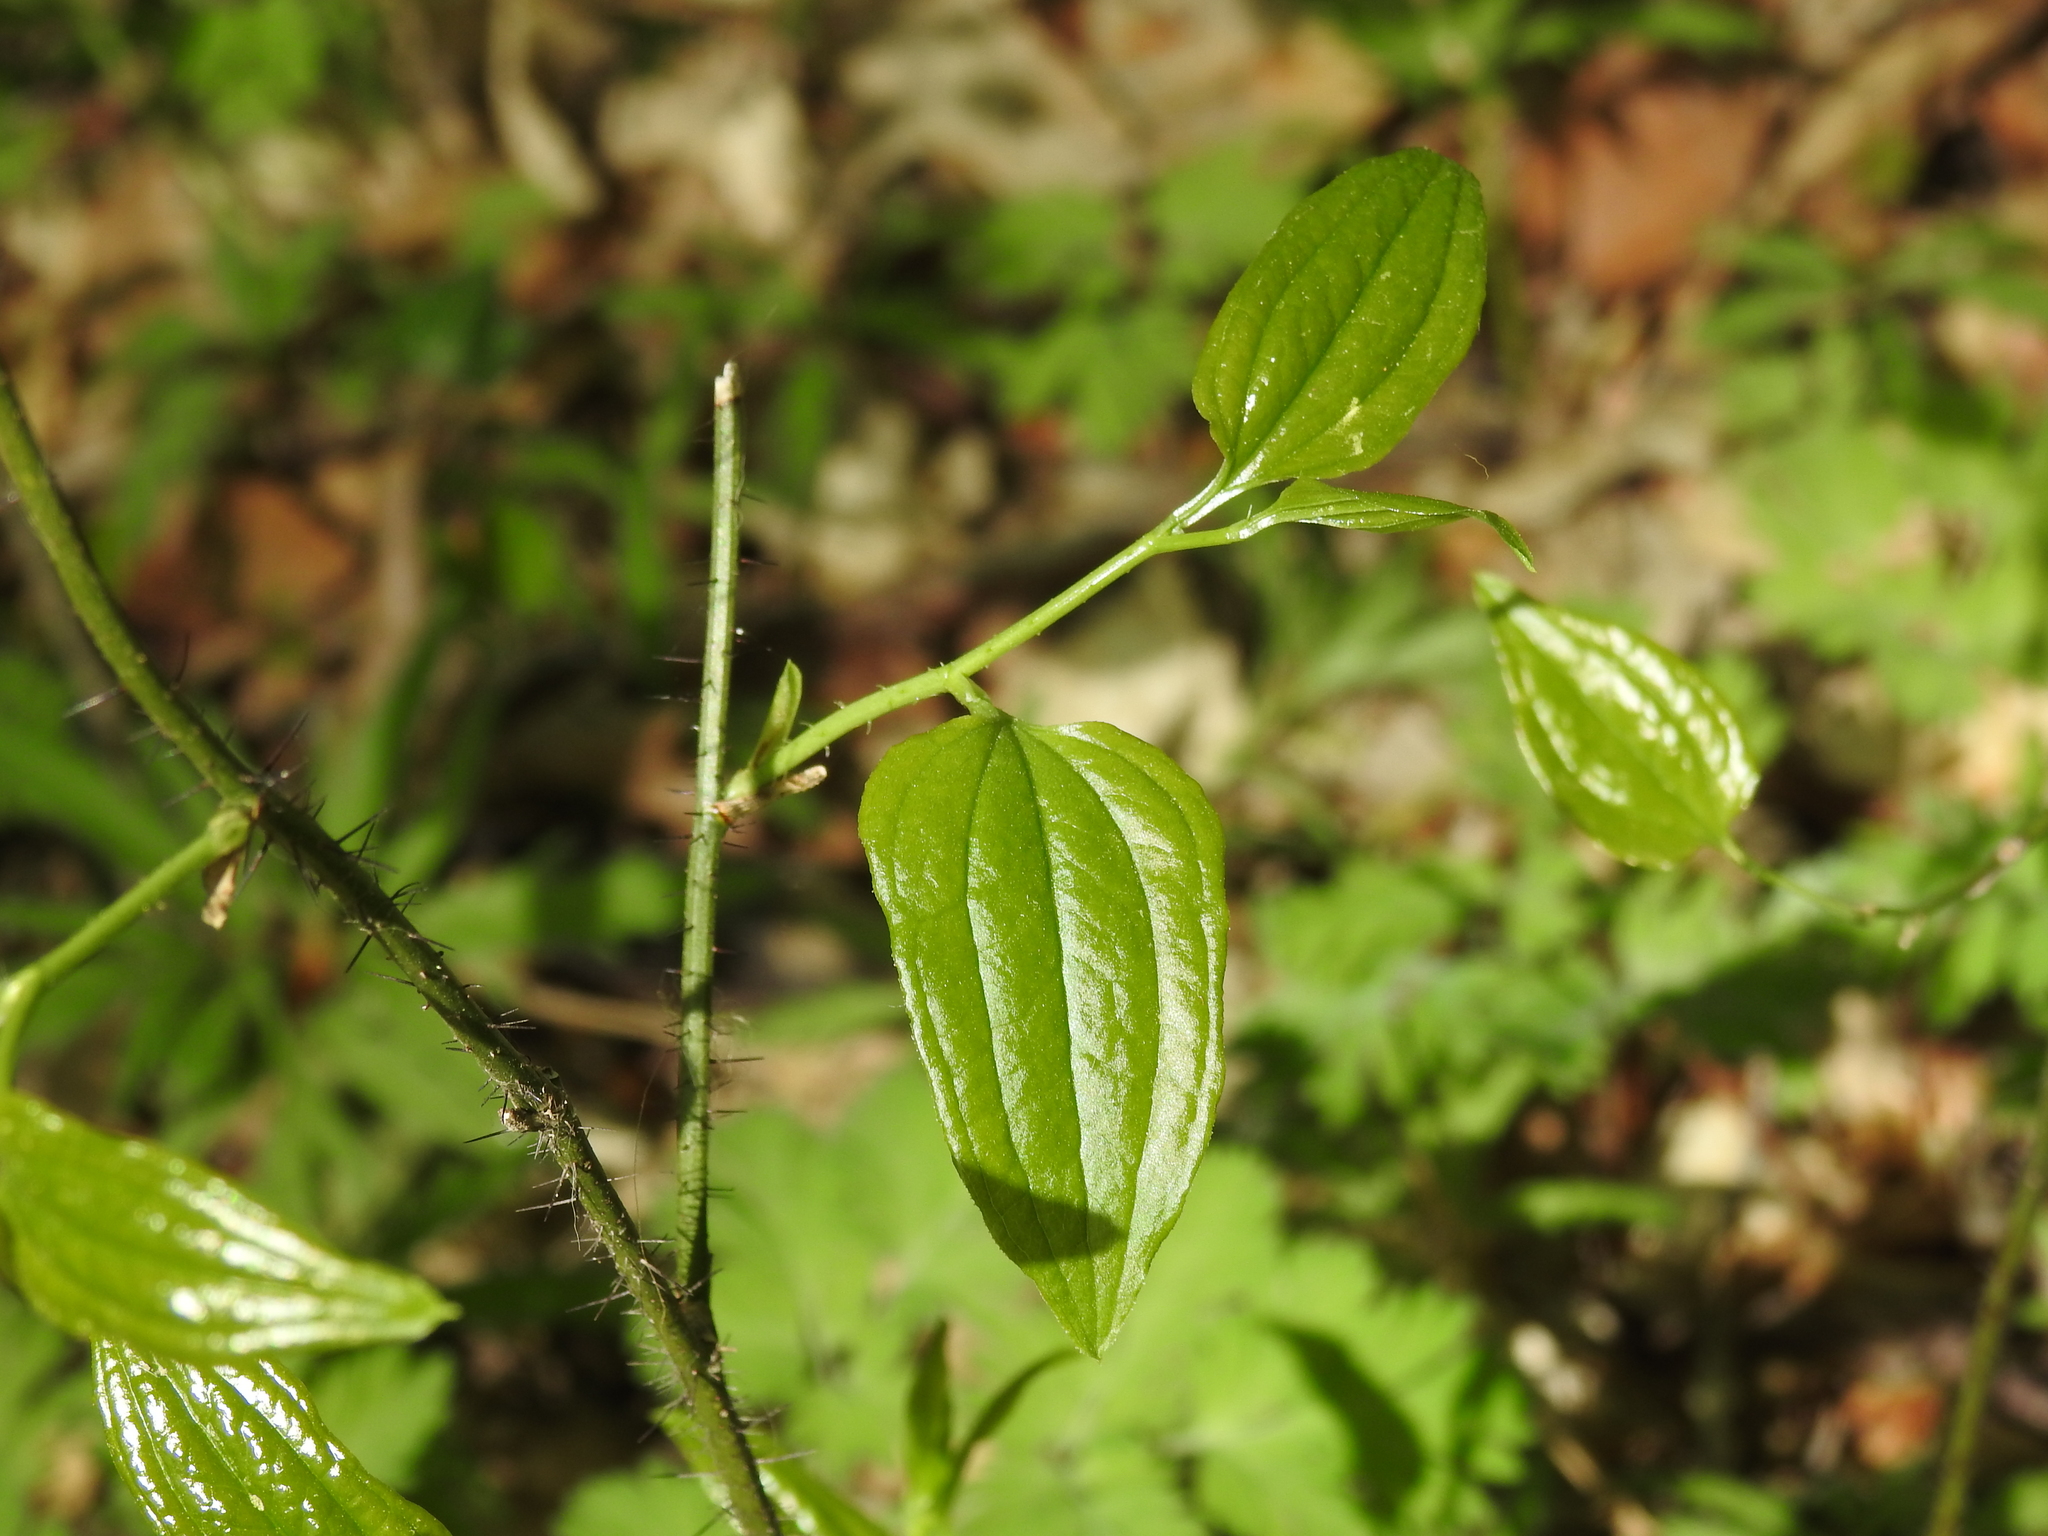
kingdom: Plantae
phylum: Tracheophyta
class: Liliopsida
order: Liliales
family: Smilacaceae
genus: Smilax
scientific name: Smilax tamnoides
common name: Hellfetter
